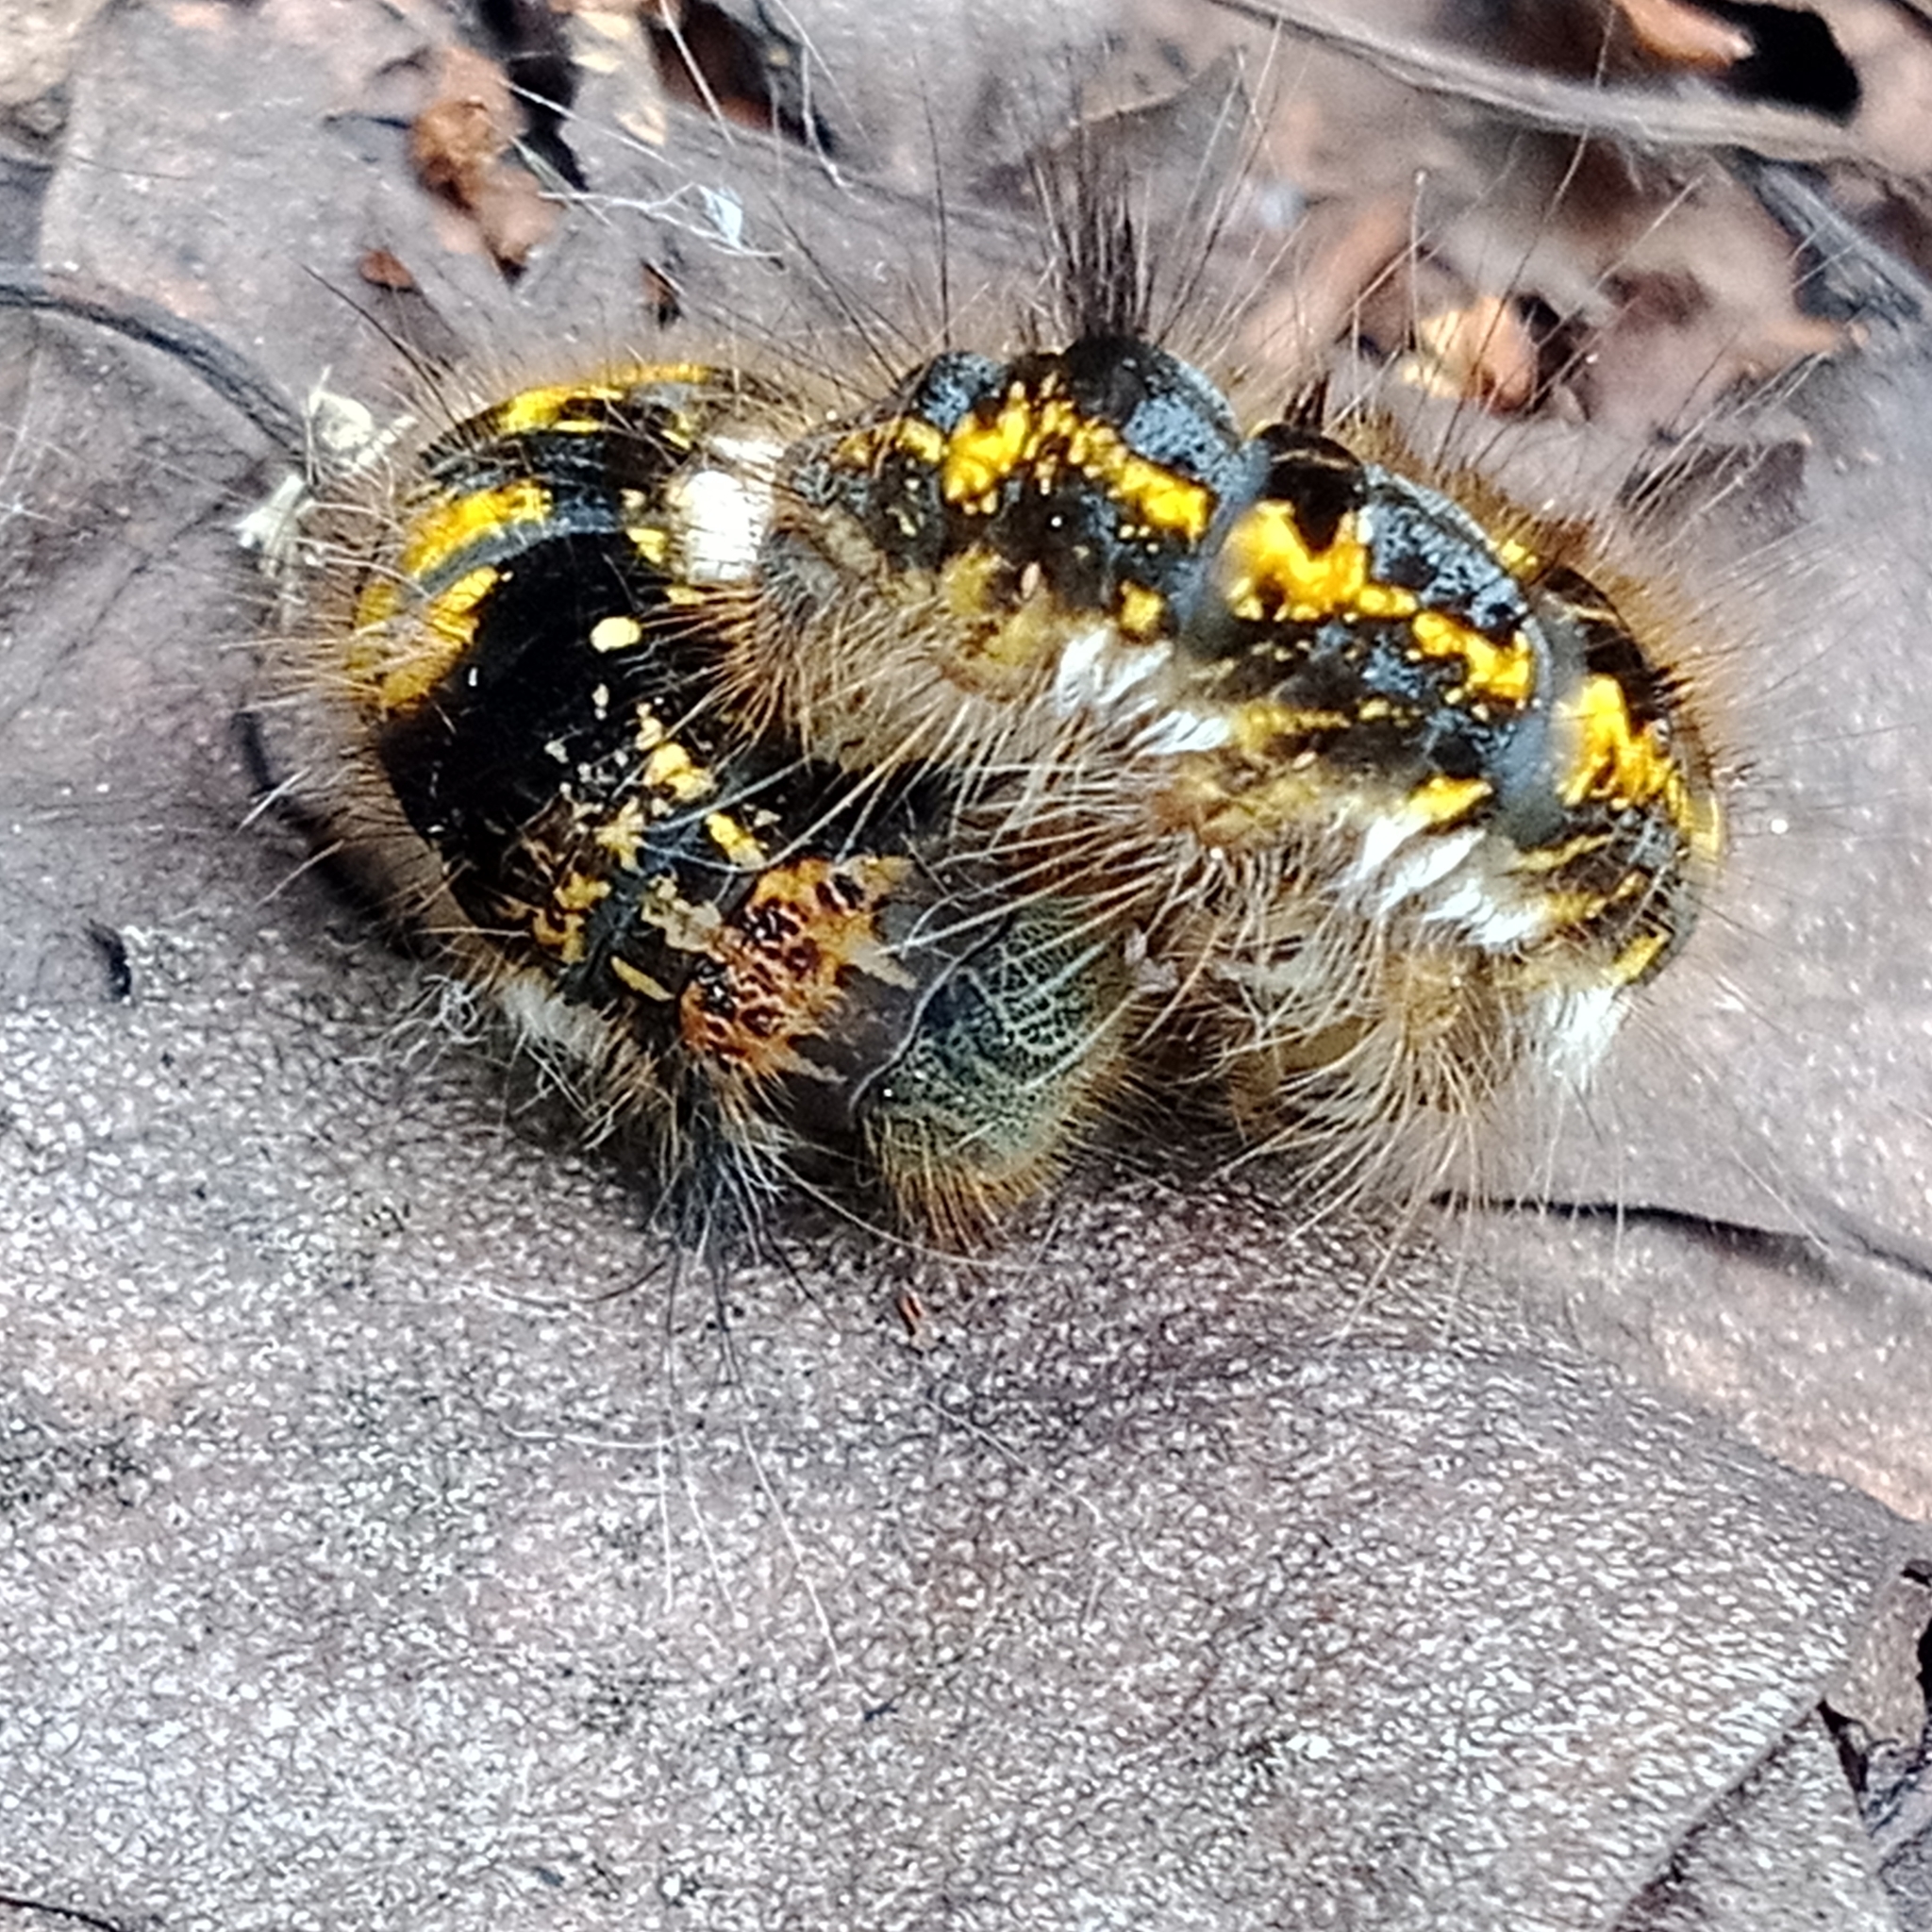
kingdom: Animalia
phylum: Arthropoda
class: Insecta
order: Lepidoptera
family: Lasiocampidae
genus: Euthrix
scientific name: Euthrix potatoria
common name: Drinker
